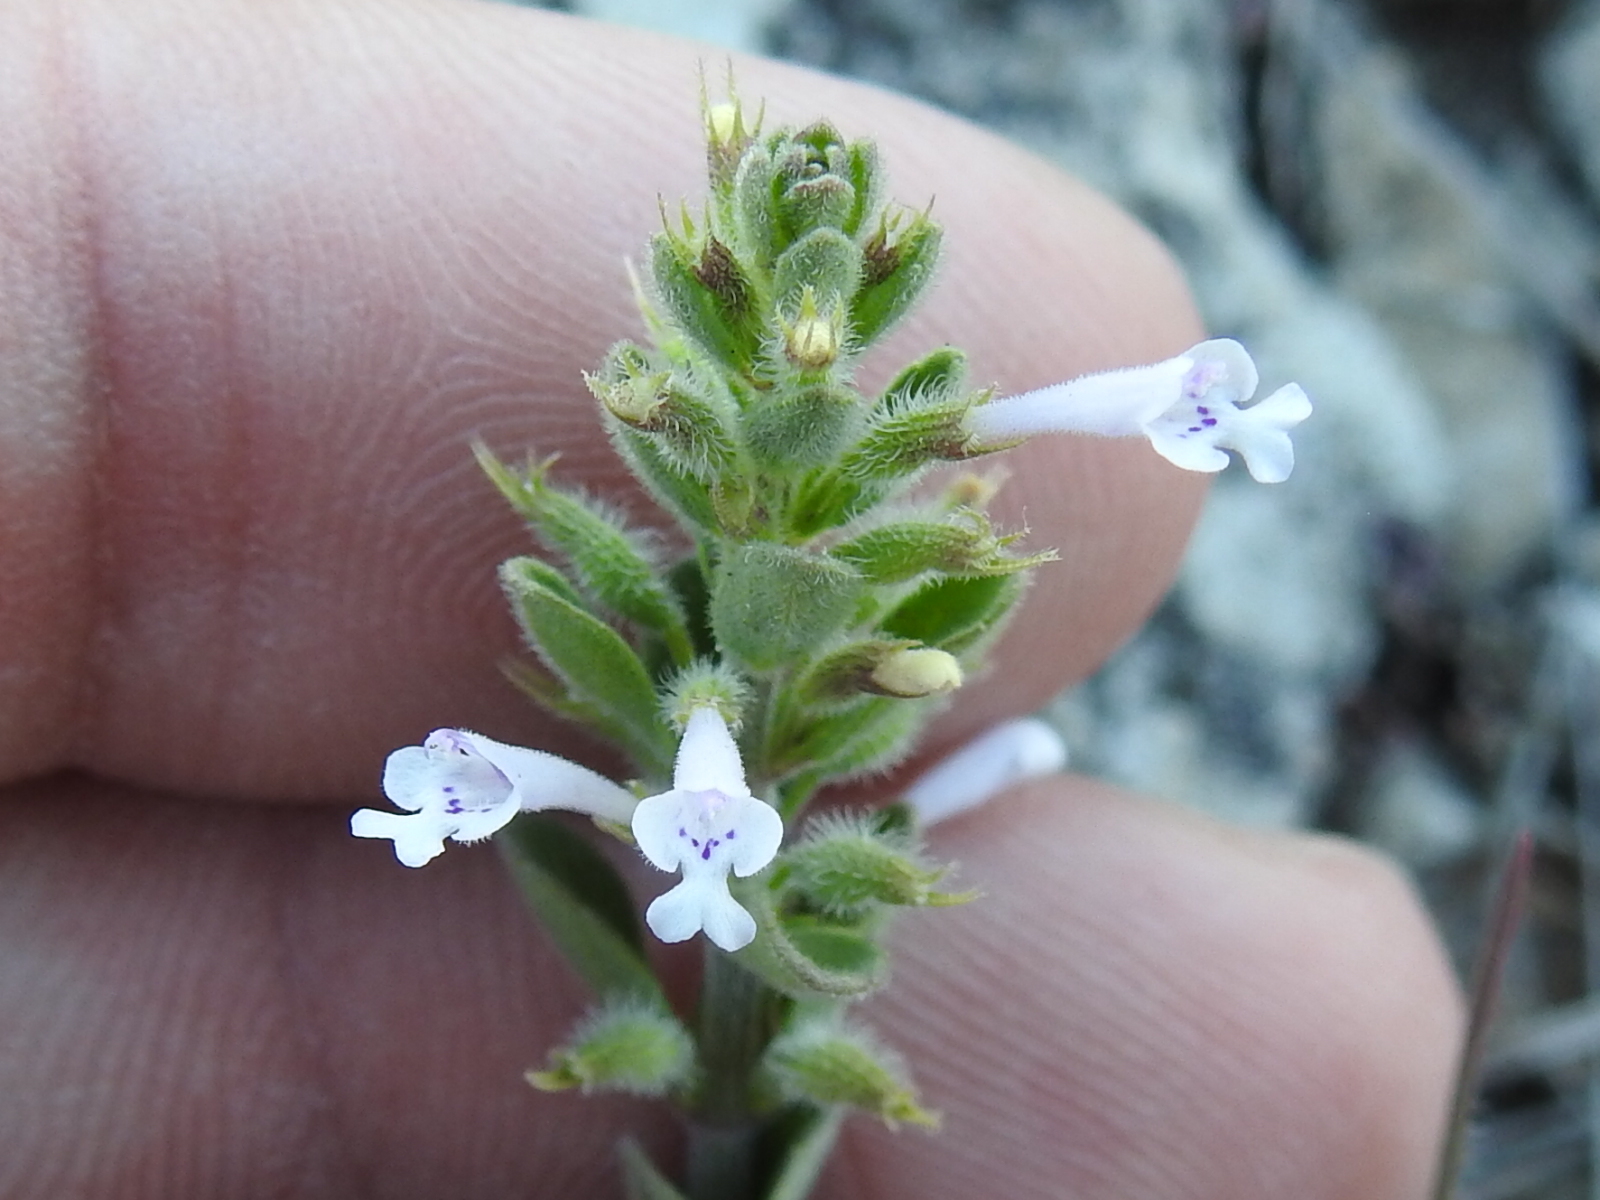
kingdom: Plantae
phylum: Tracheophyta
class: Magnoliopsida
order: Lamiales
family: Lamiaceae
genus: Hedeoma
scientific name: Hedeoma reverchonii
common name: Reverchon's false penny-royal
